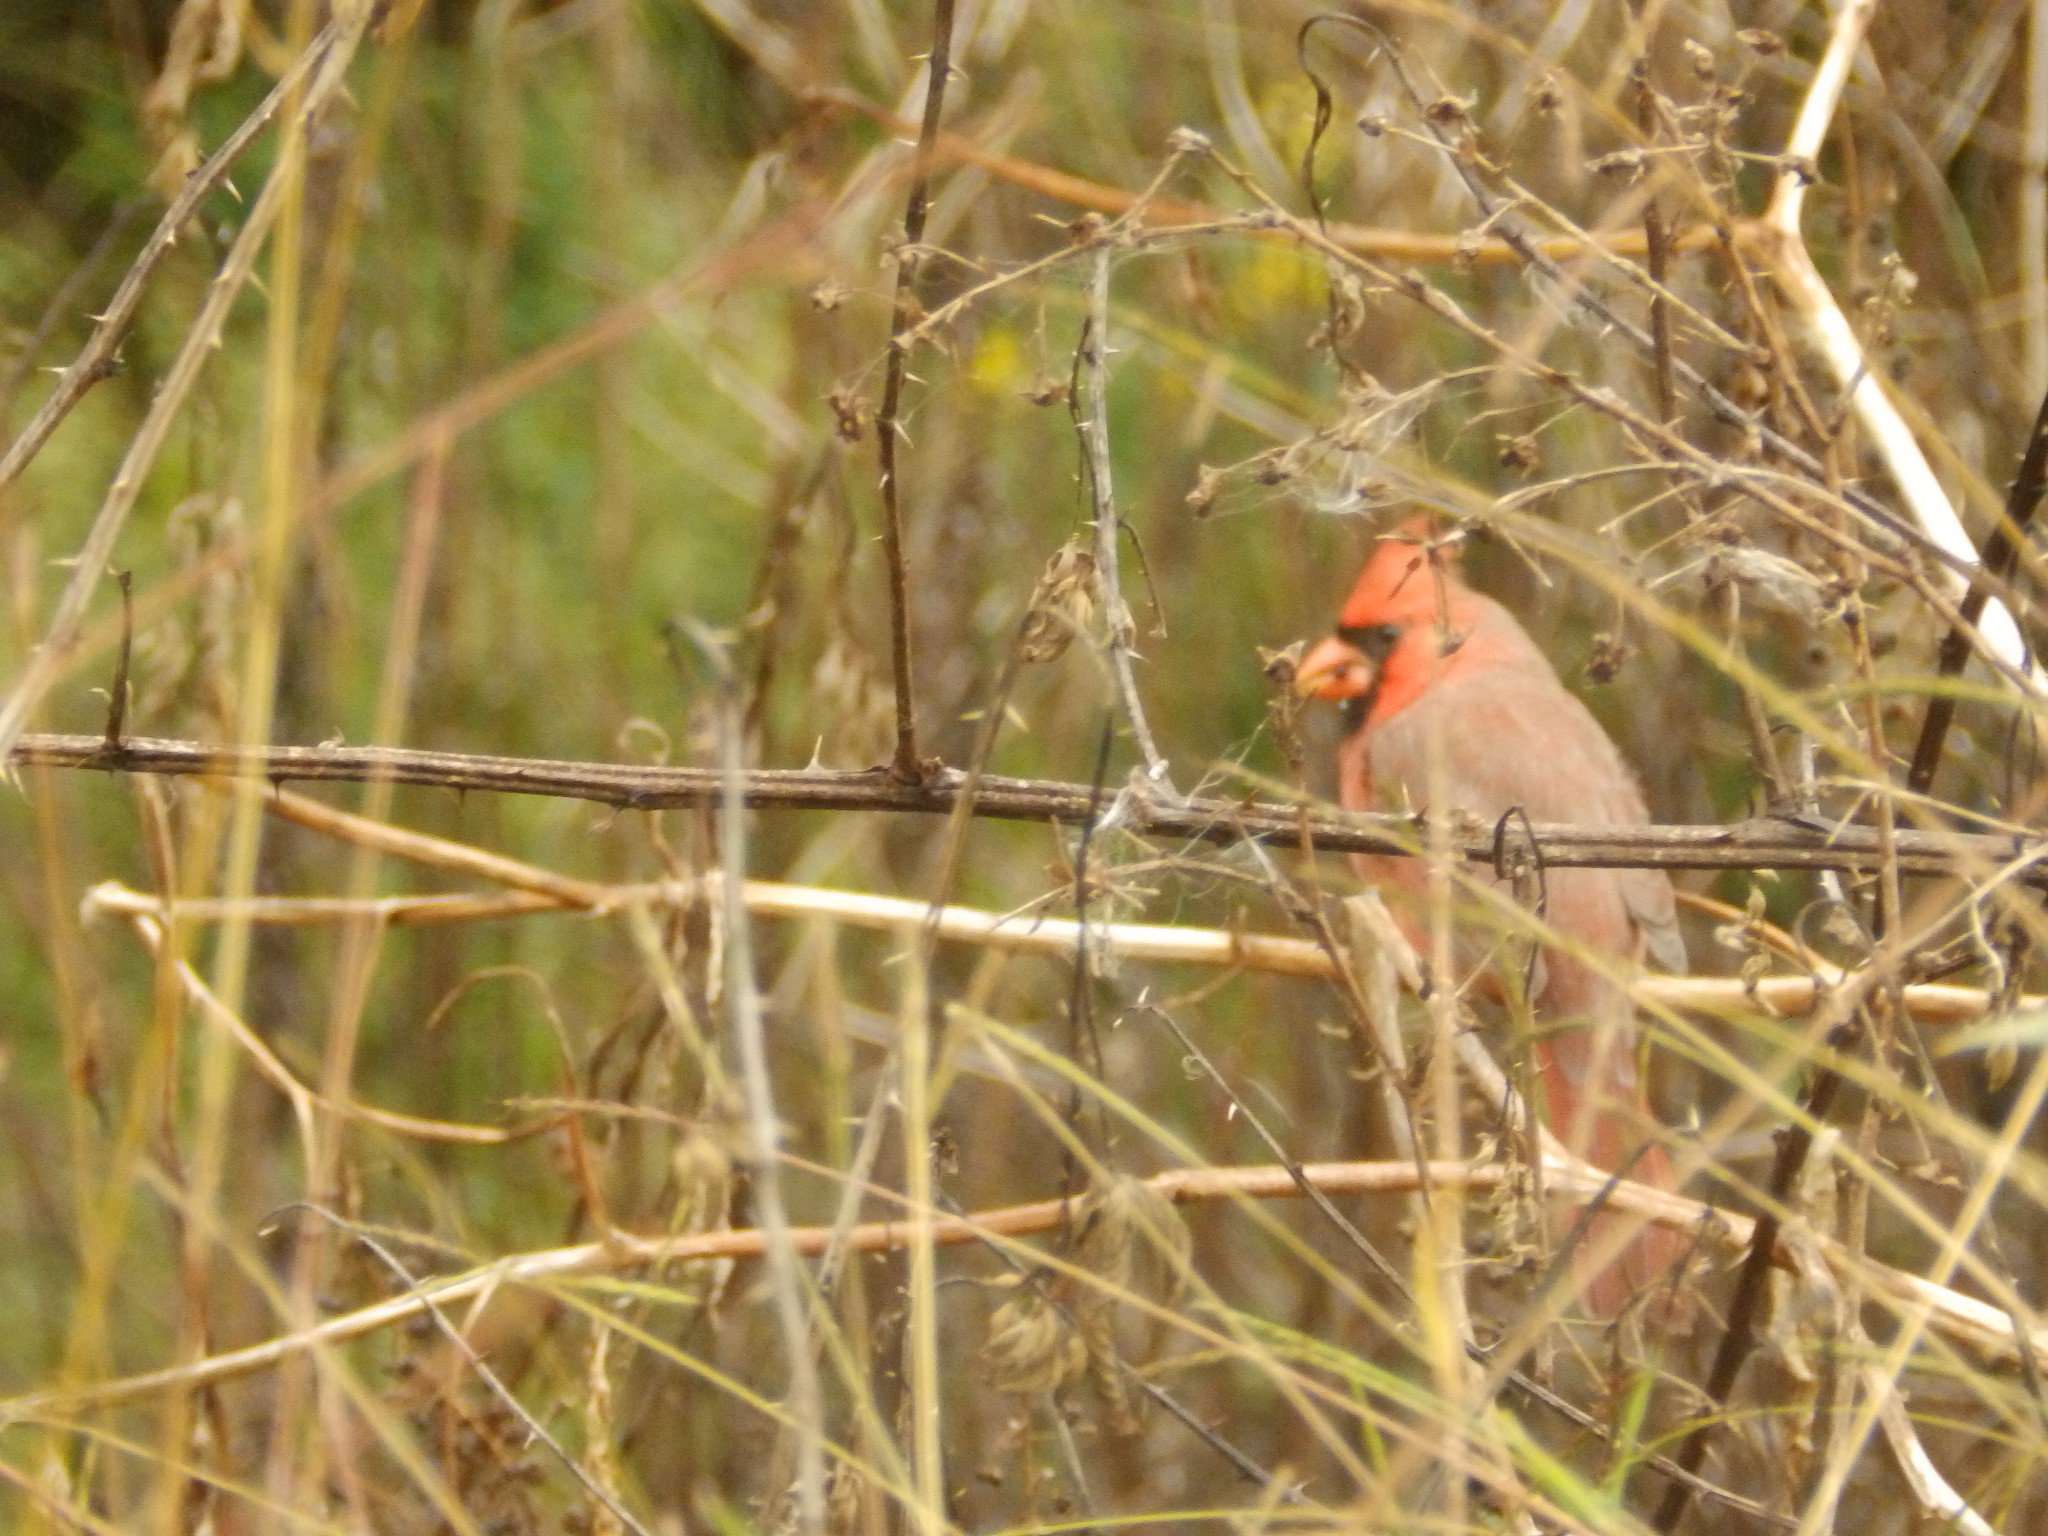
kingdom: Animalia
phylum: Chordata
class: Aves
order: Passeriformes
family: Cardinalidae
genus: Cardinalis
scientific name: Cardinalis cardinalis
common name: Northern cardinal
